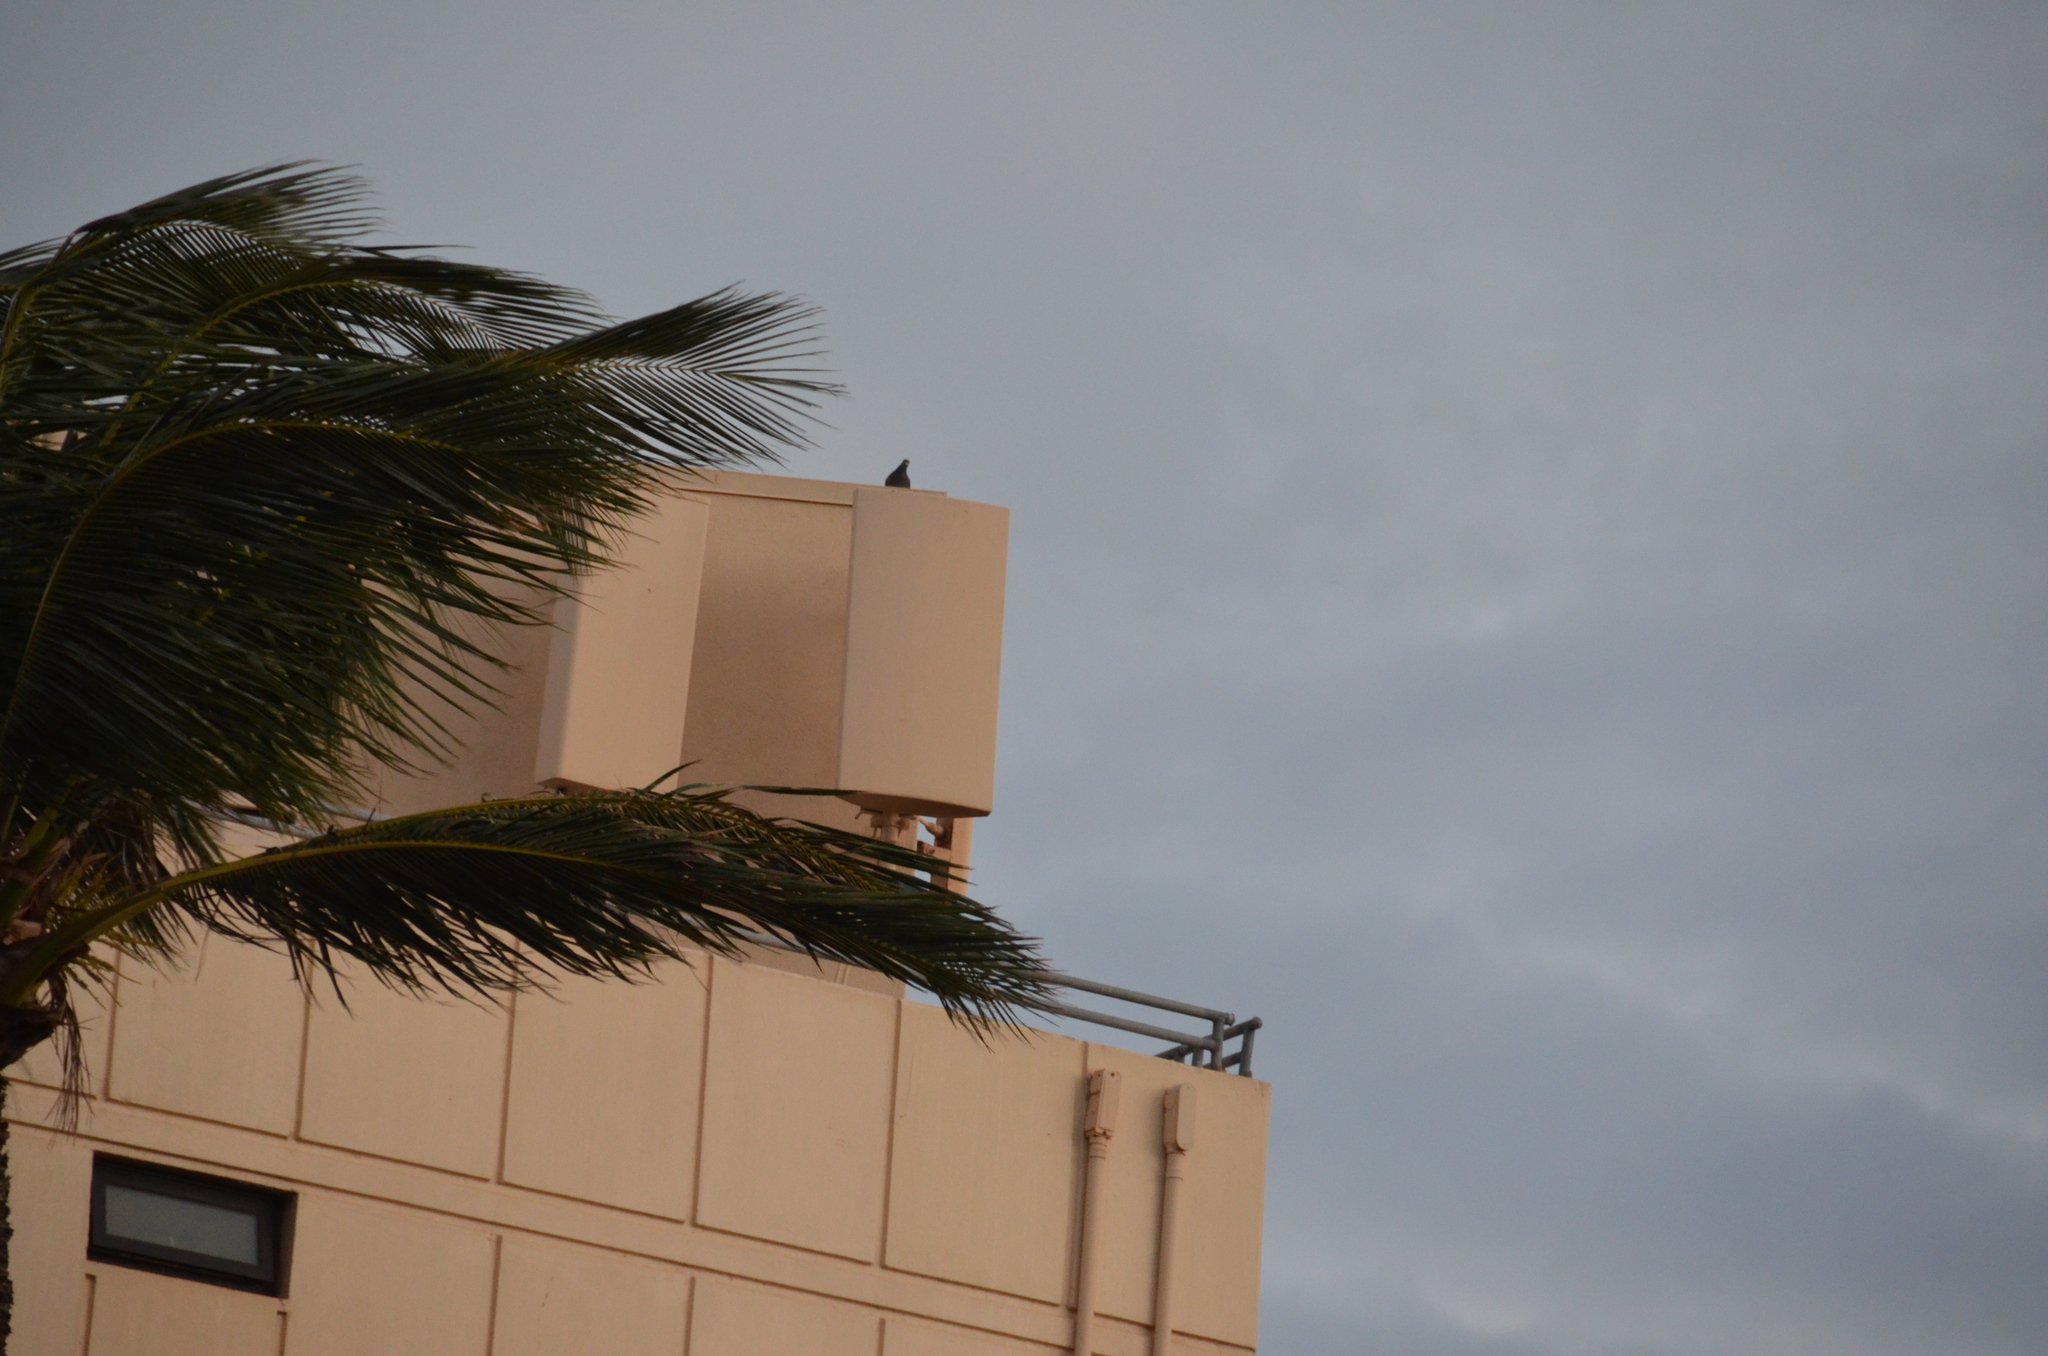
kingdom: Animalia
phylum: Chordata
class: Aves
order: Columbiformes
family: Columbidae
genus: Columba
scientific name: Columba livia
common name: Rock pigeon
